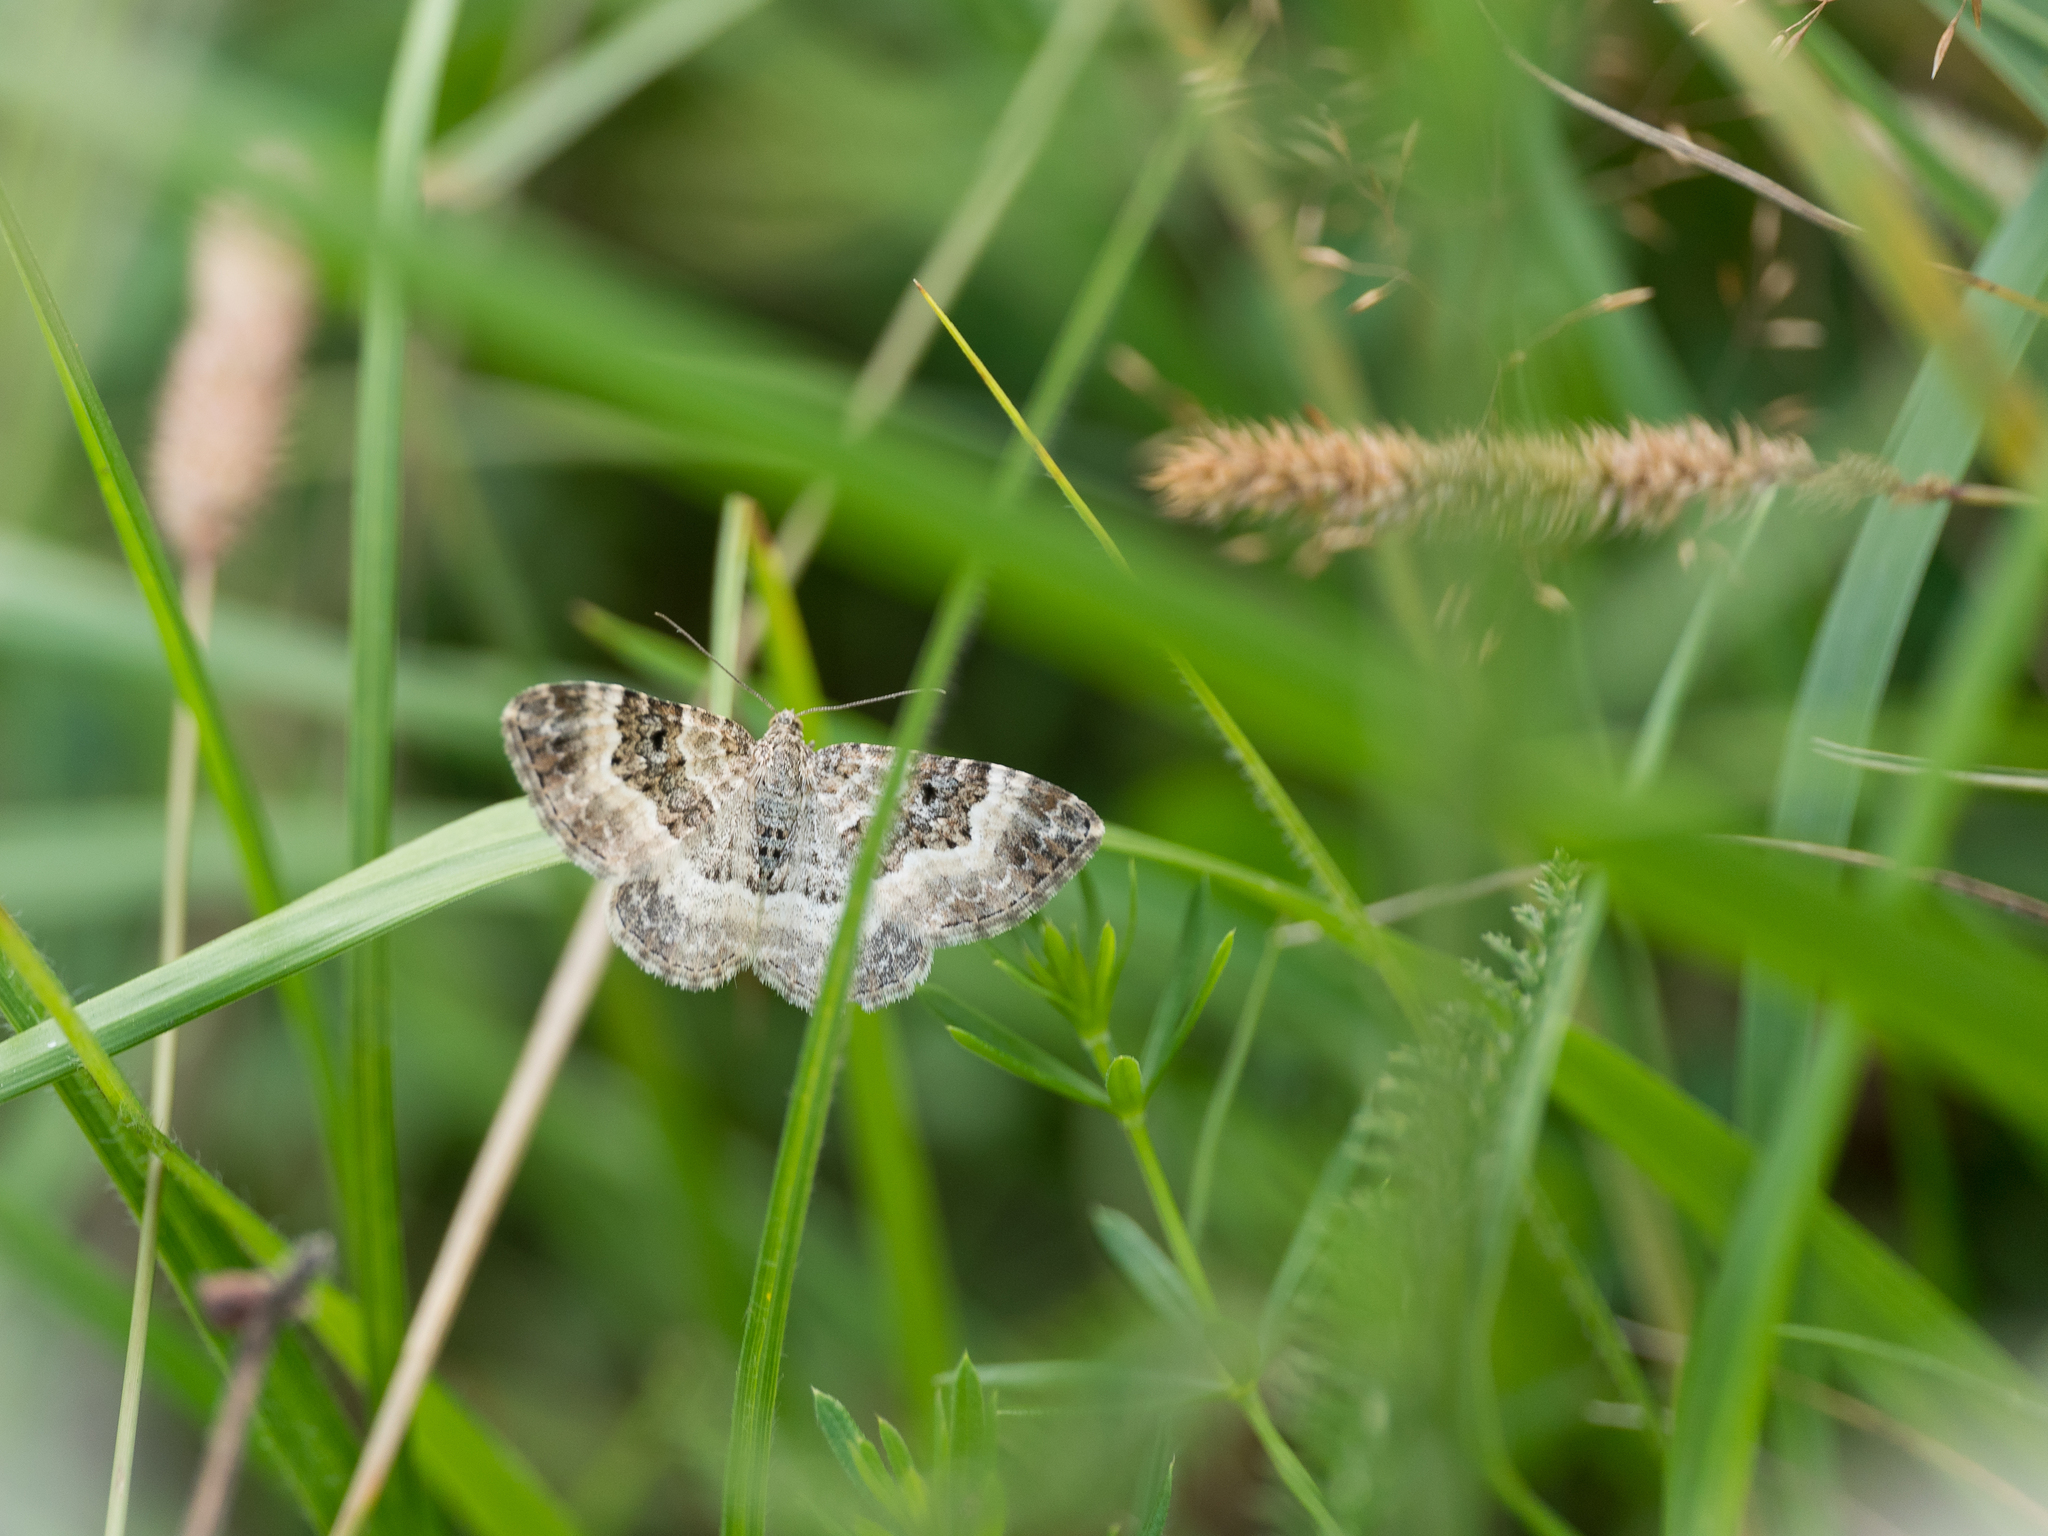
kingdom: Animalia
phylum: Arthropoda
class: Insecta
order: Lepidoptera
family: Geometridae
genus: Epirrhoe
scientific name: Epirrhoe rivata
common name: Wood carpet
